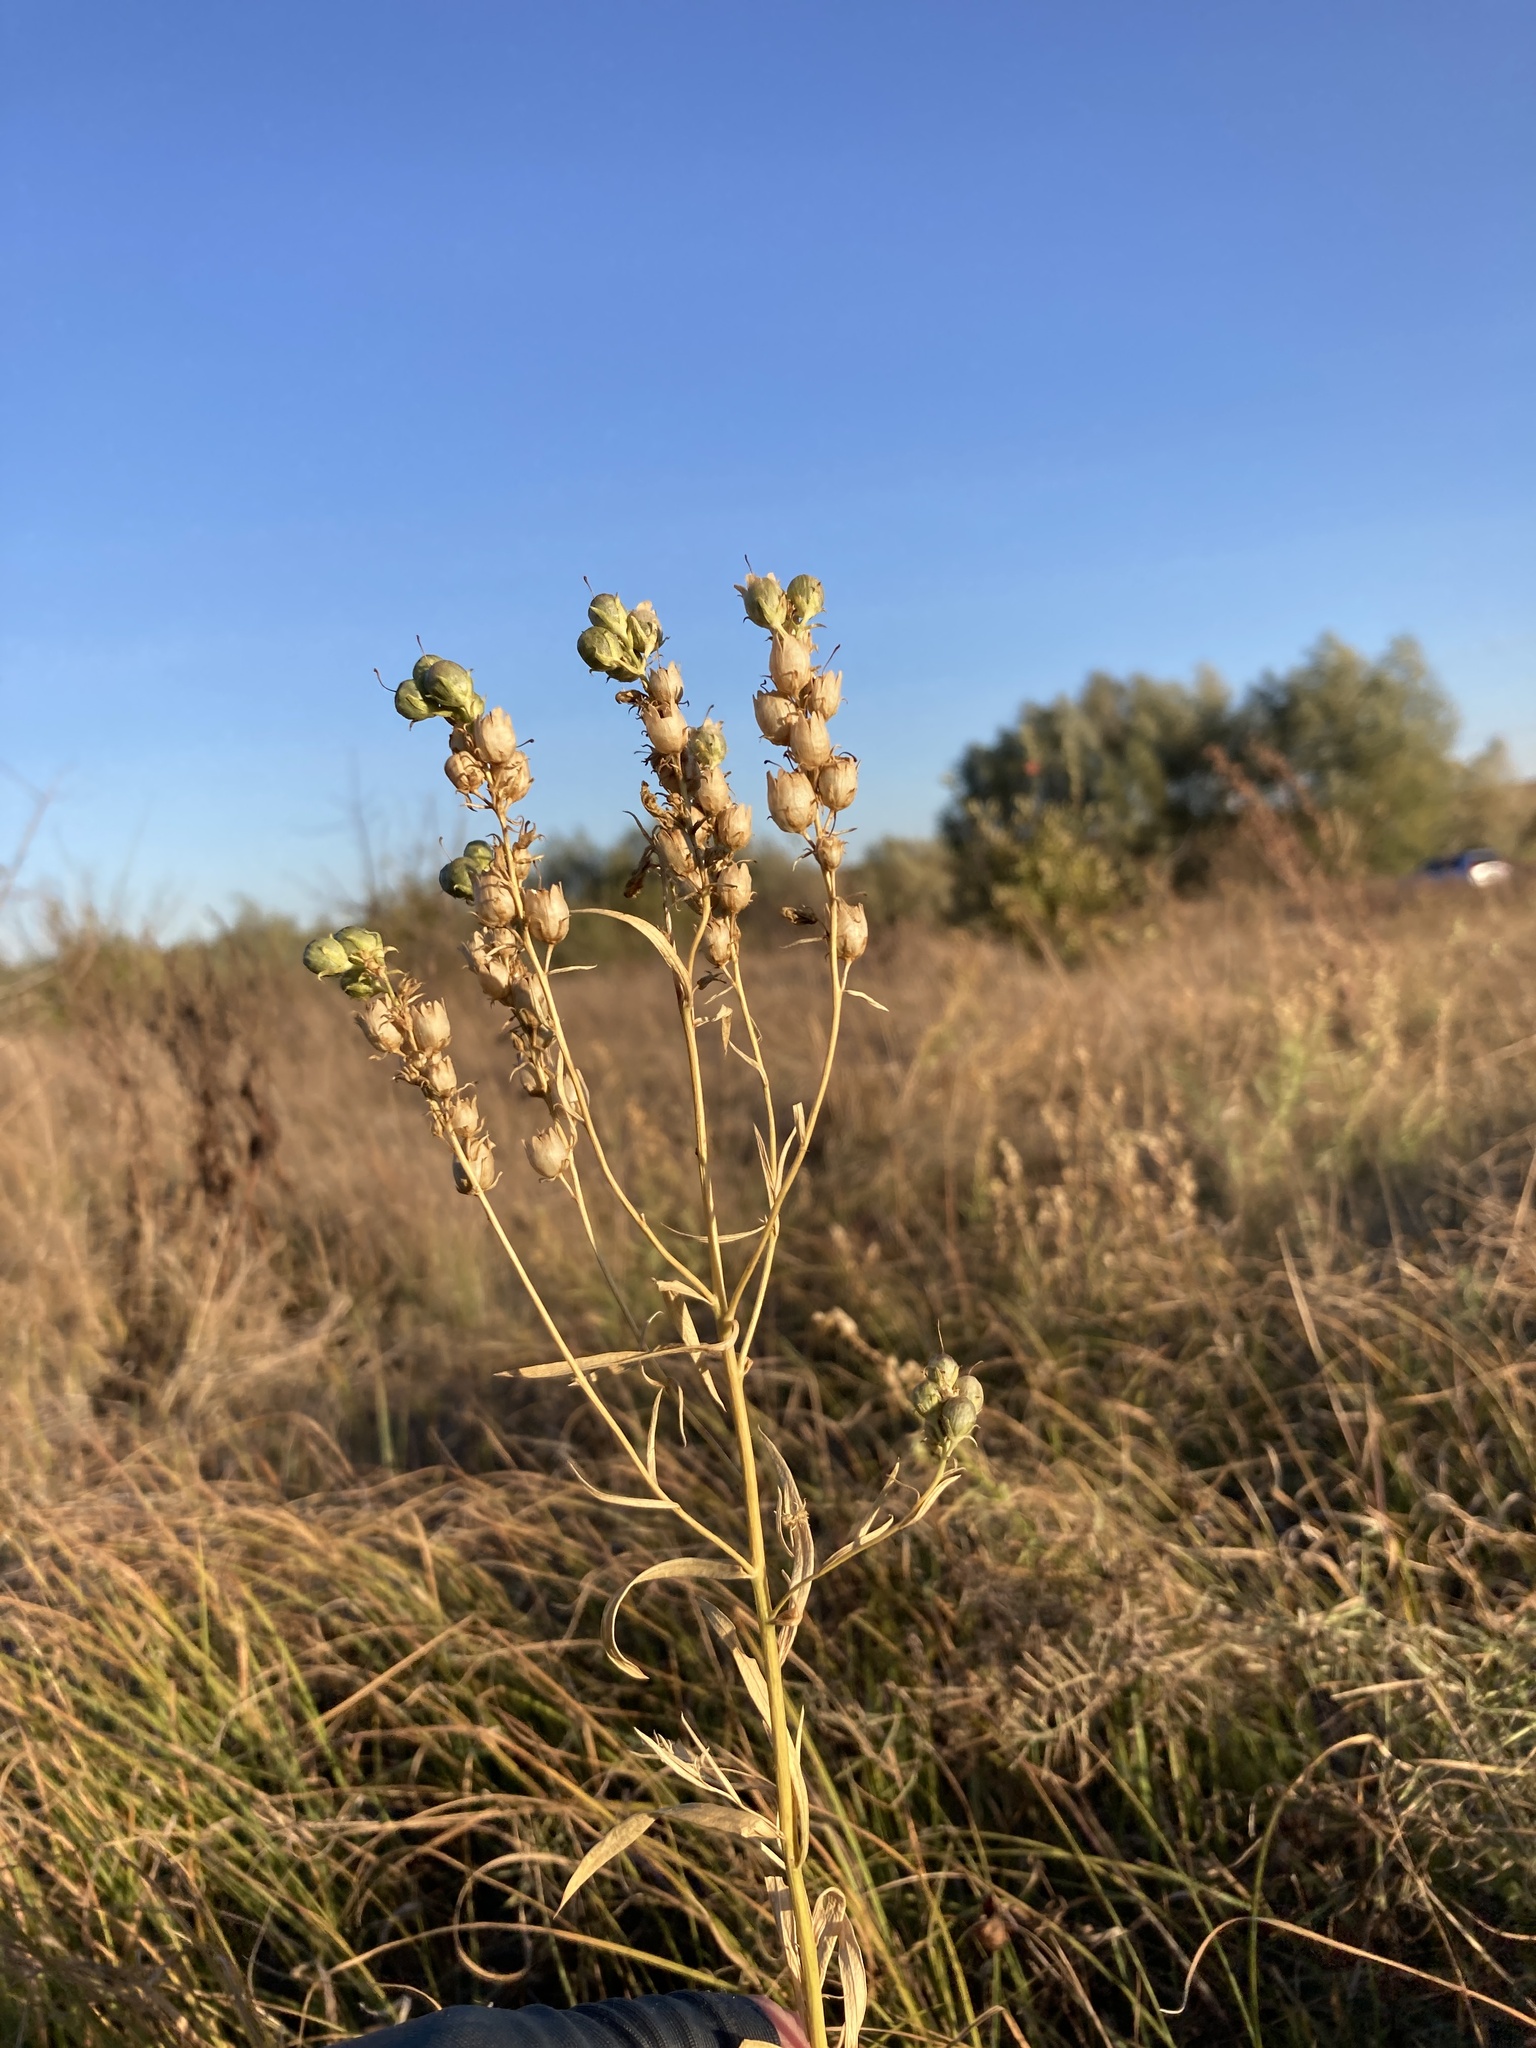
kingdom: Plantae
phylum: Tracheophyta
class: Magnoliopsida
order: Lamiales
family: Plantaginaceae
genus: Linaria
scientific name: Linaria vulgaris
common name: Butter and eggs
